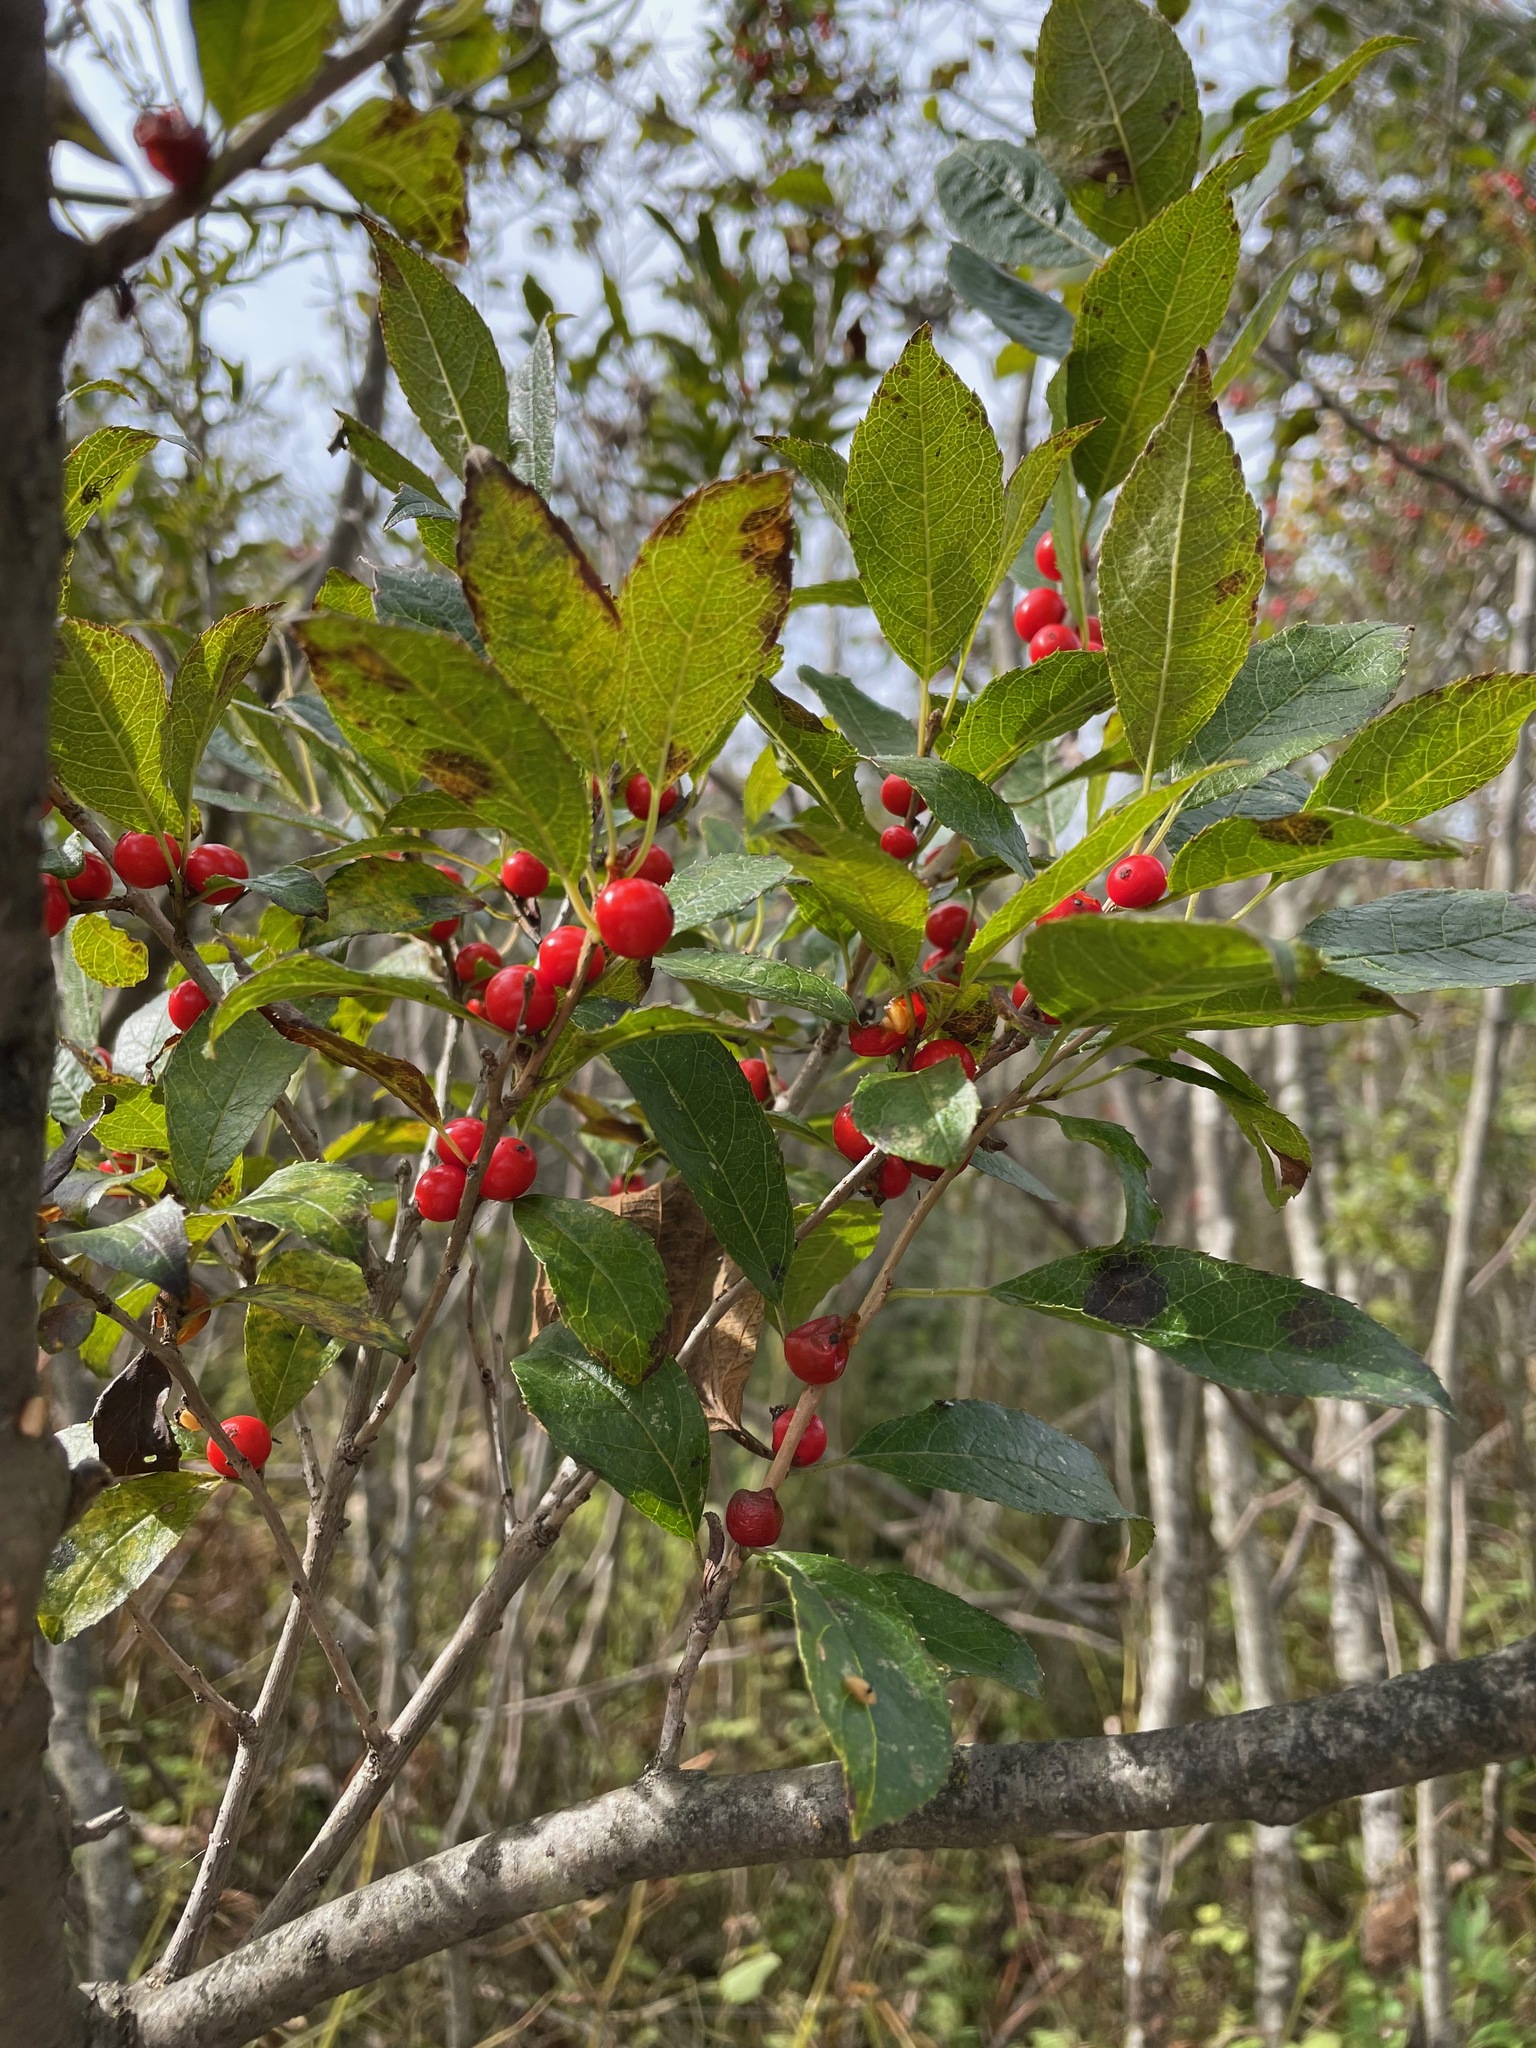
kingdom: Plantae
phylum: Tracheophyta
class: Magnoliopsida
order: Aquifoliales
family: Aquifoliaceae
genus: Ilex
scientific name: Ilex verticillata
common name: Virginia winterberry
